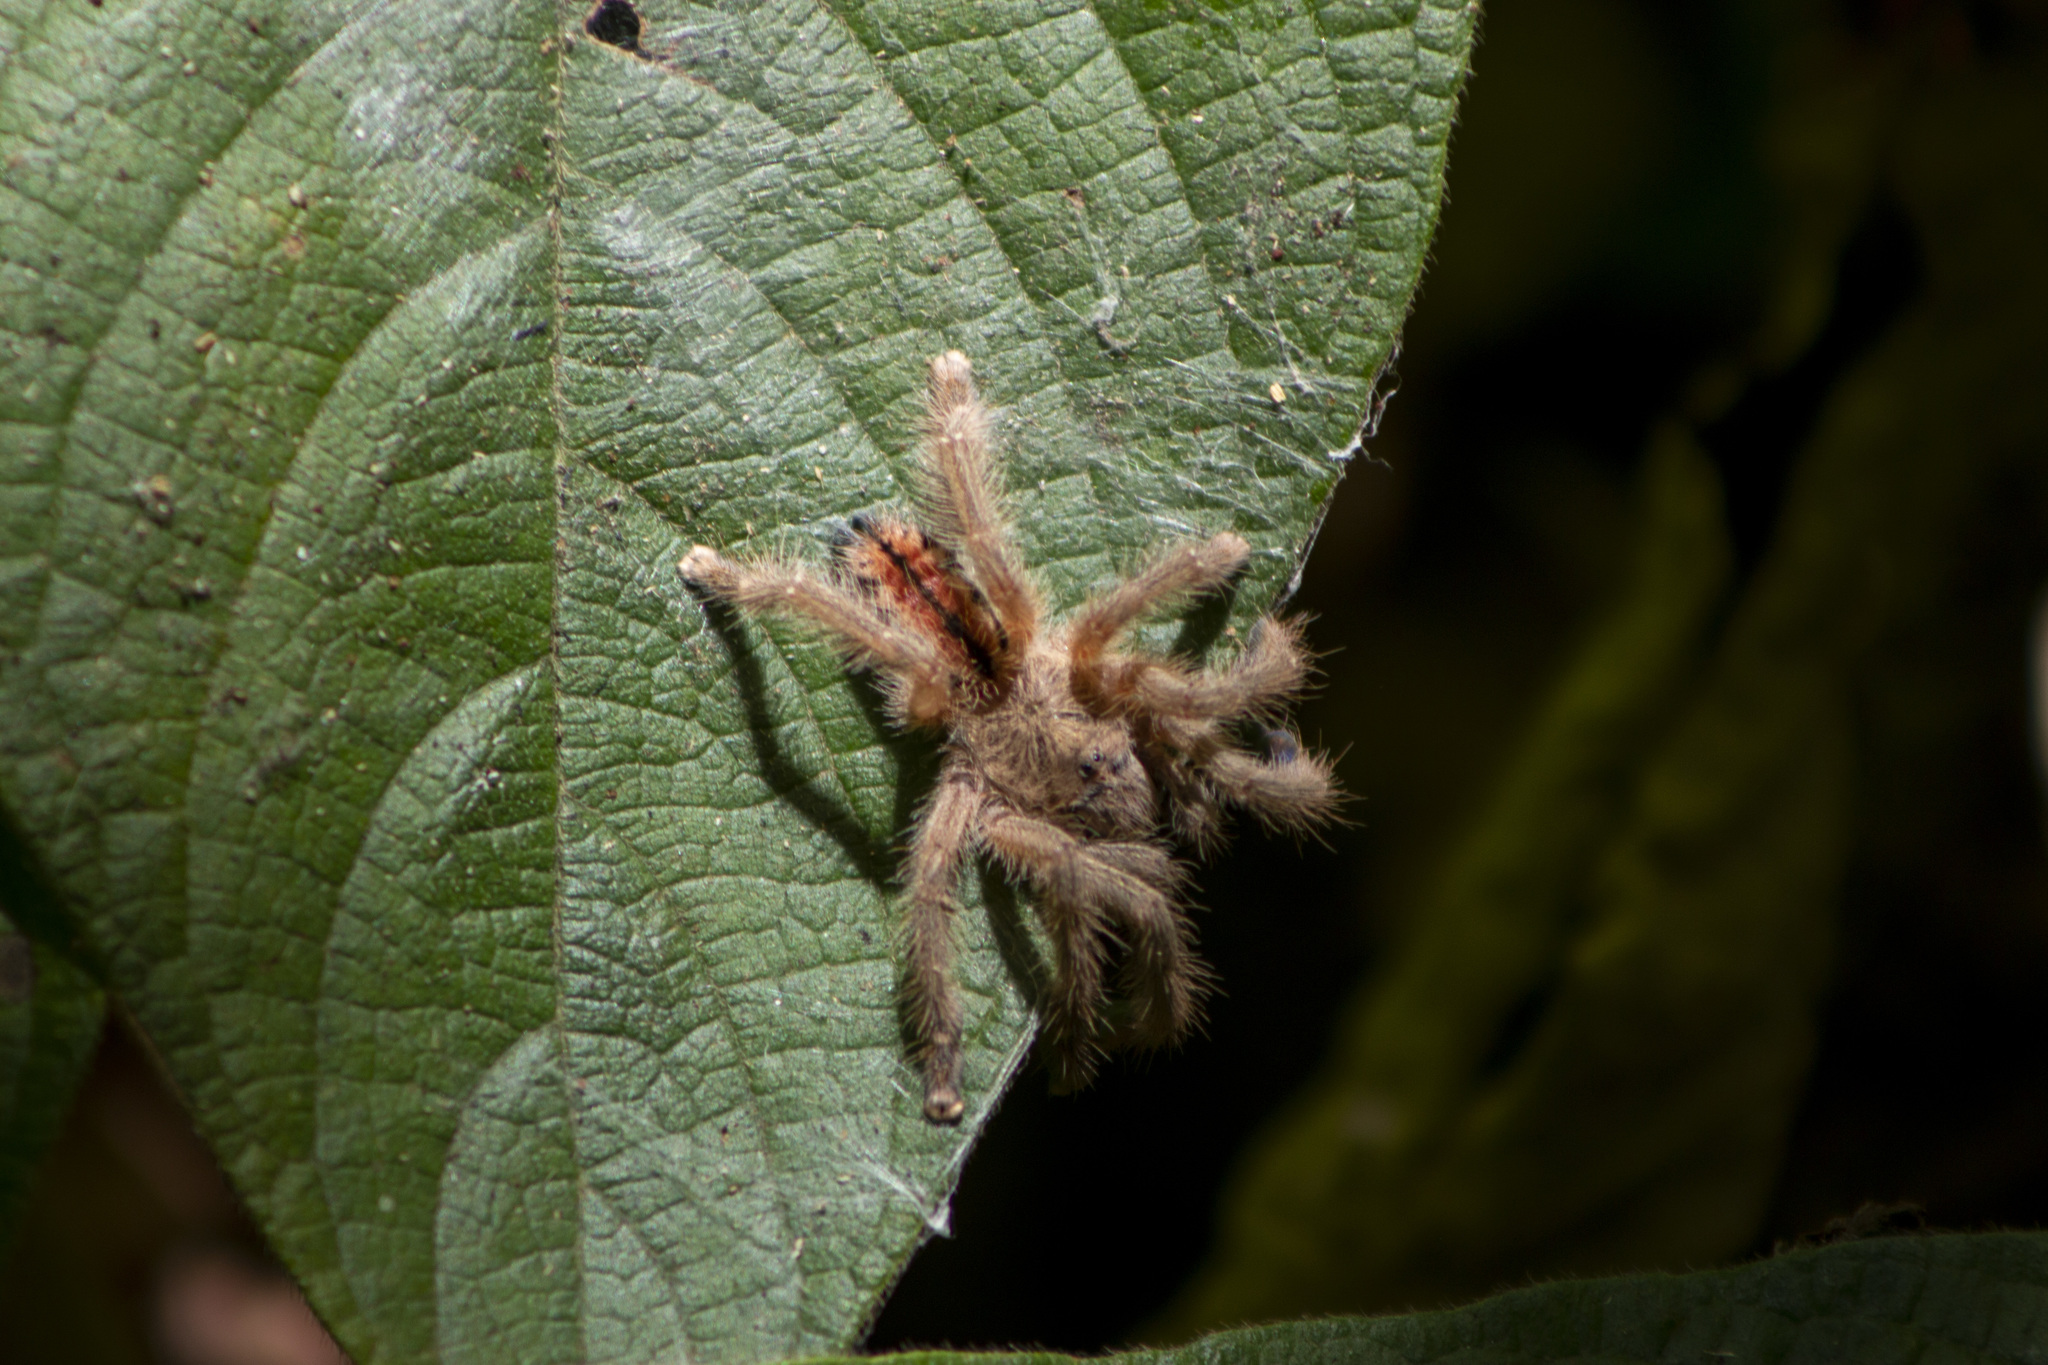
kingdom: Animalia
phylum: Arthropoda
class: Arachnida
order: Araneae
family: Theraphosidae
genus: Iridopelma
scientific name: Iridopelma hirsutum
